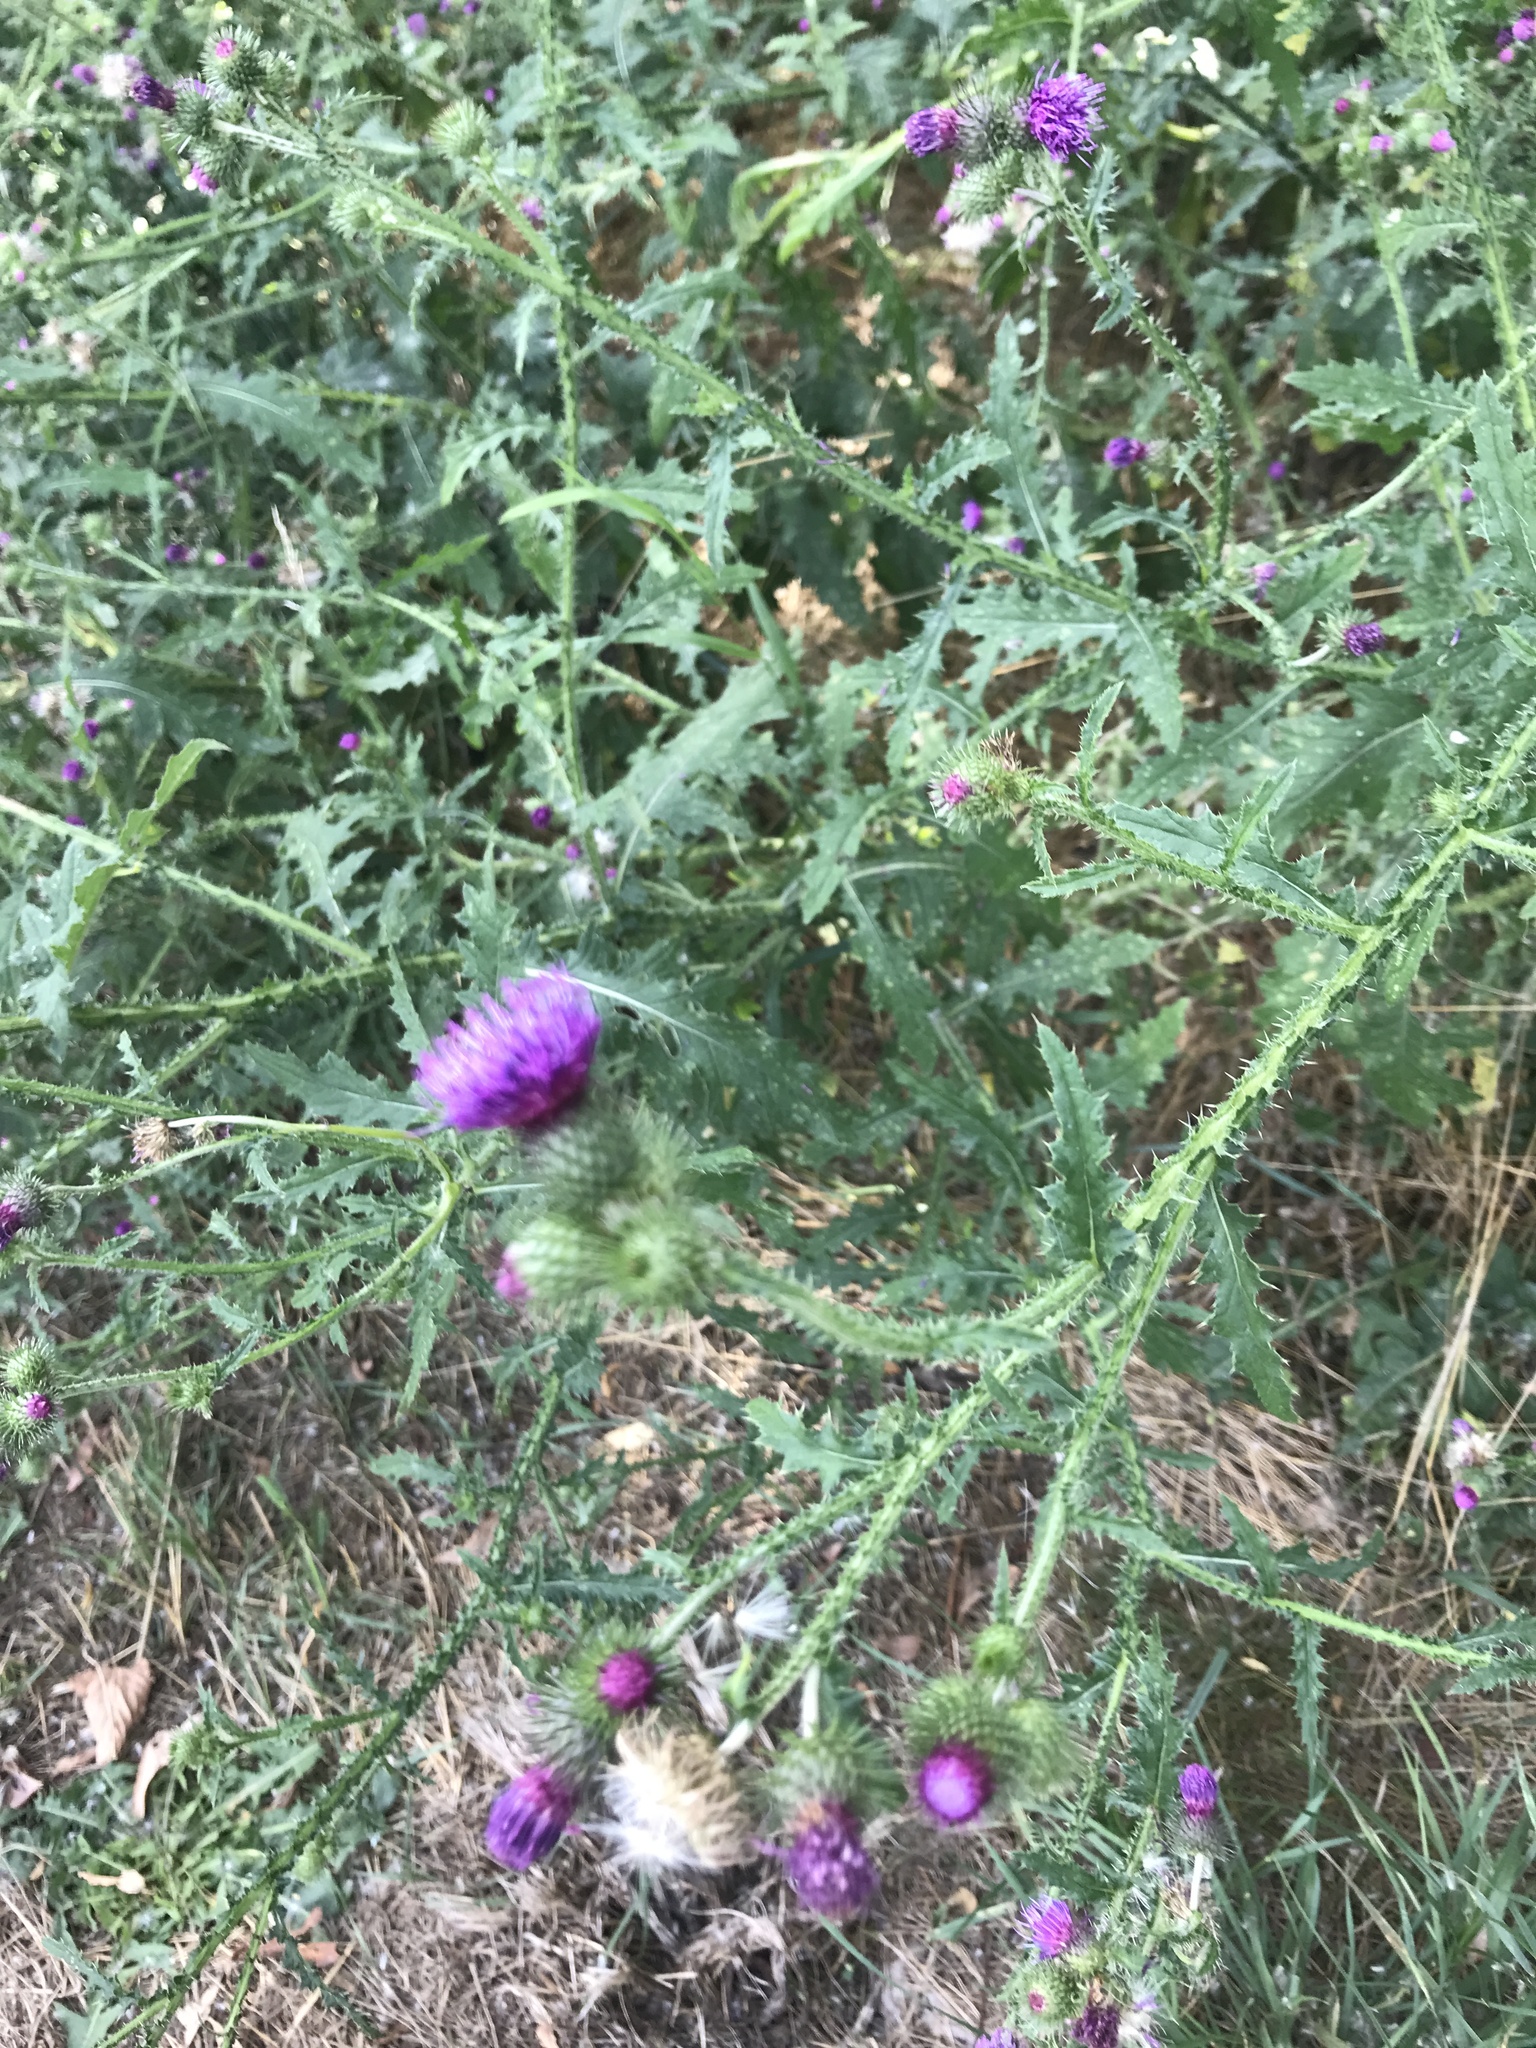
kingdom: Plantae
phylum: Tracheophyta
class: Magnoliopsida
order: Asterales
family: Asteraceae
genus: Carduus
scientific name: Carduus crispus
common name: Welted thistle
